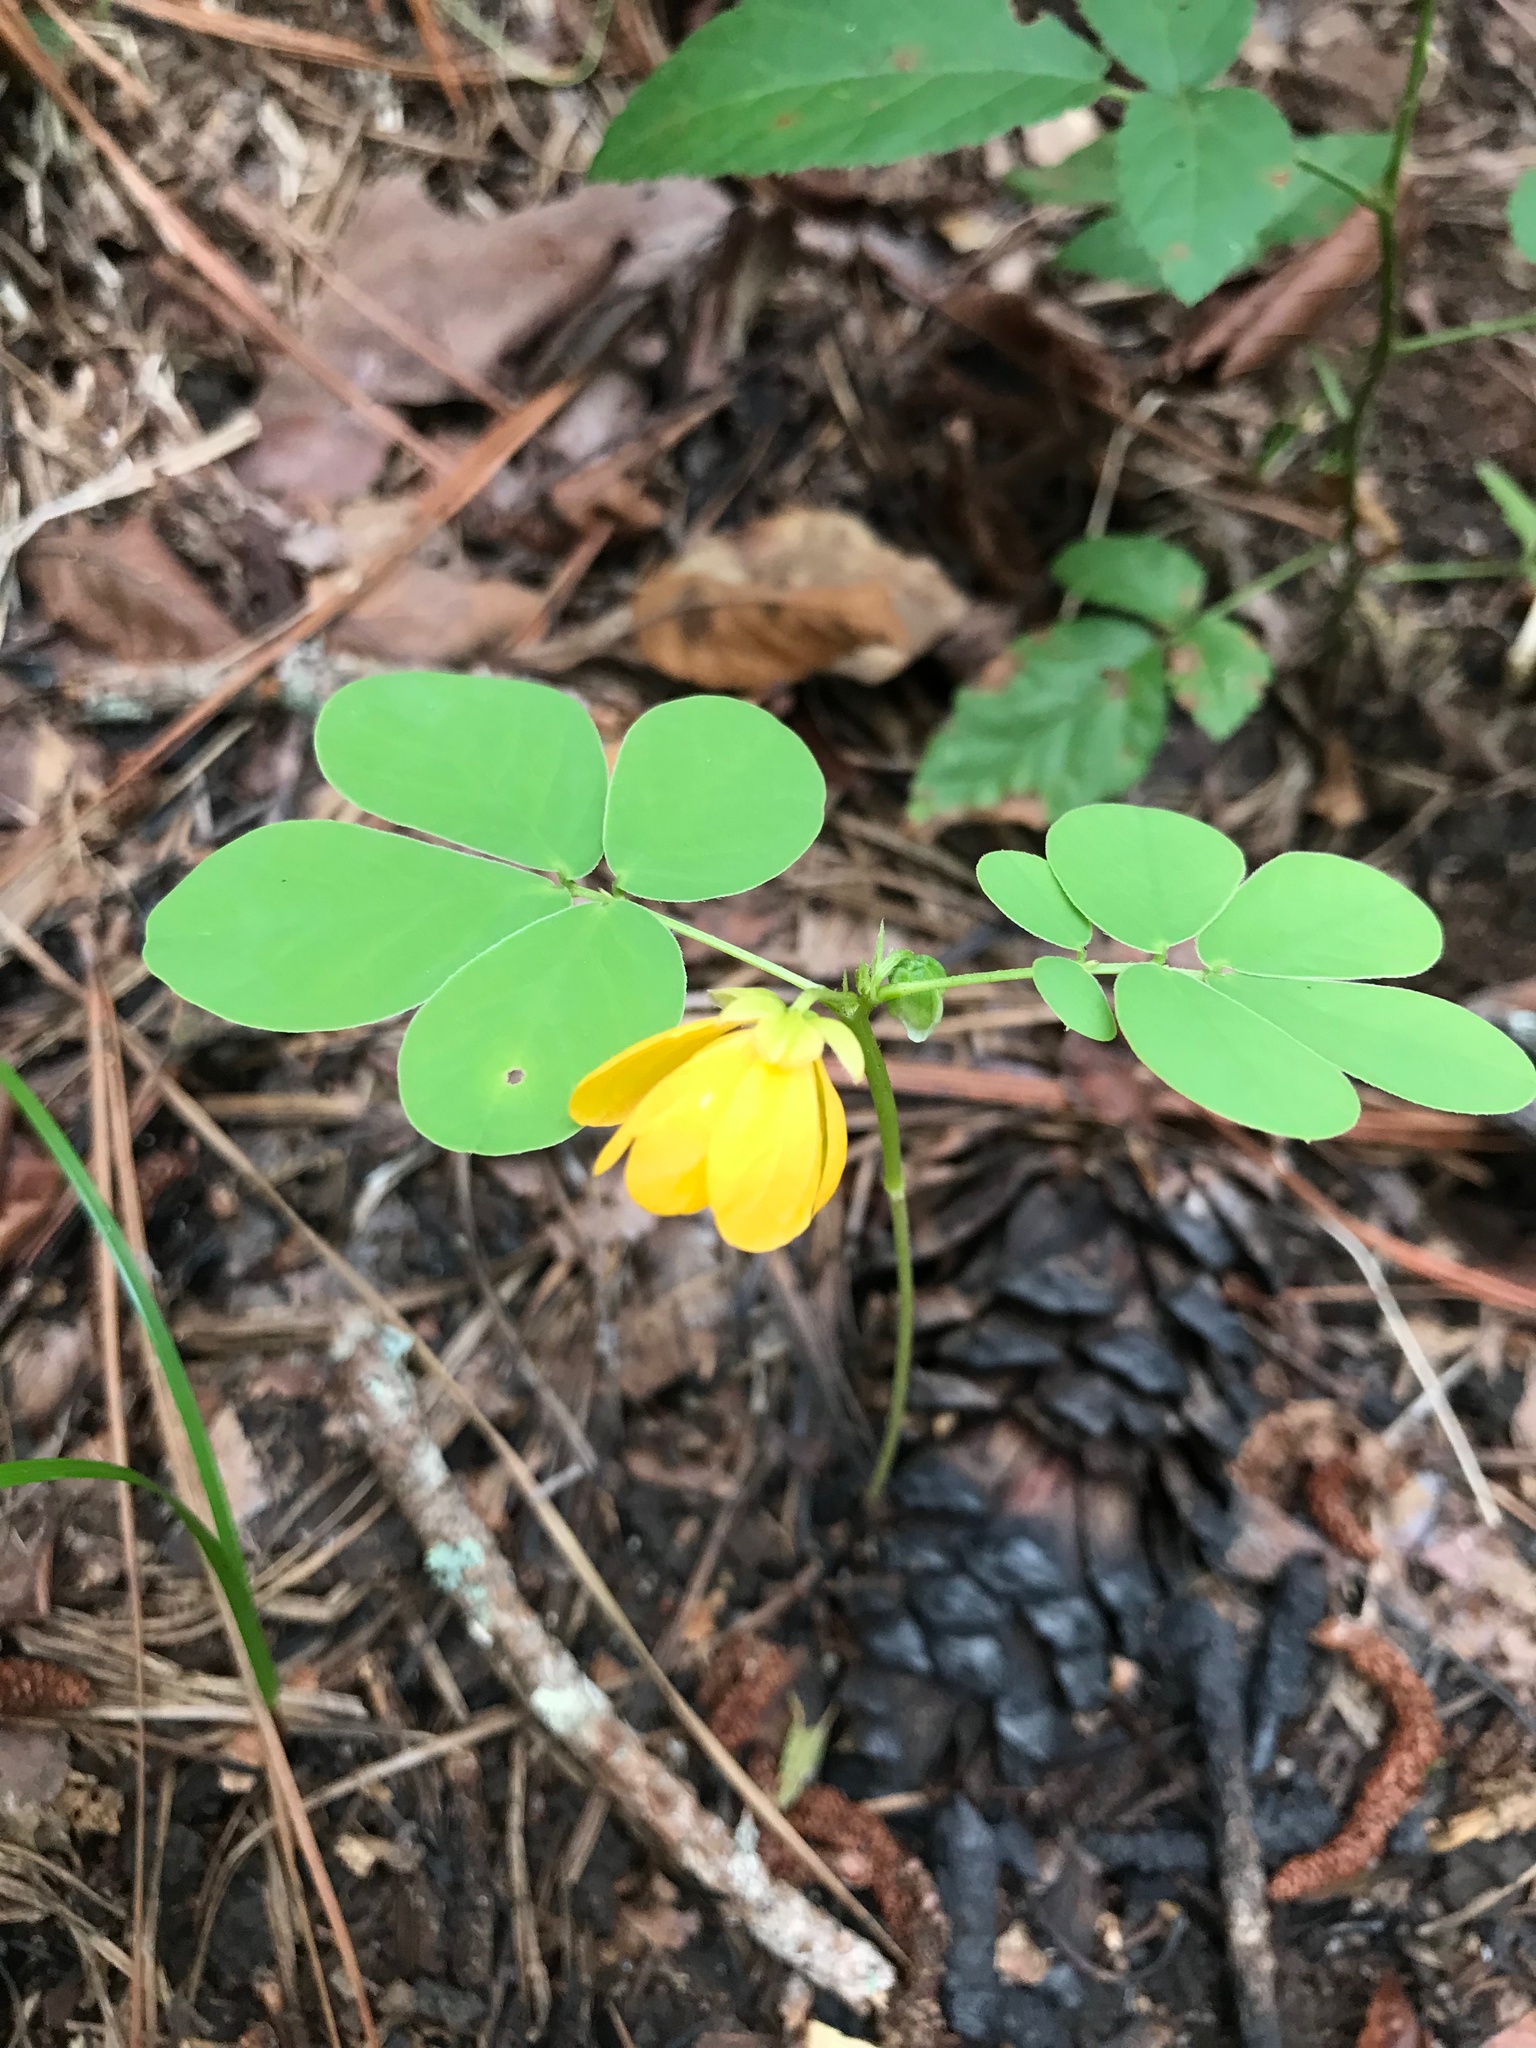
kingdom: Plantae
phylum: Tracheophyta
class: Magnoliopsida
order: Fabales
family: Fabaceae
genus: Senna
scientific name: Senna obtusifolia
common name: Java-bean
